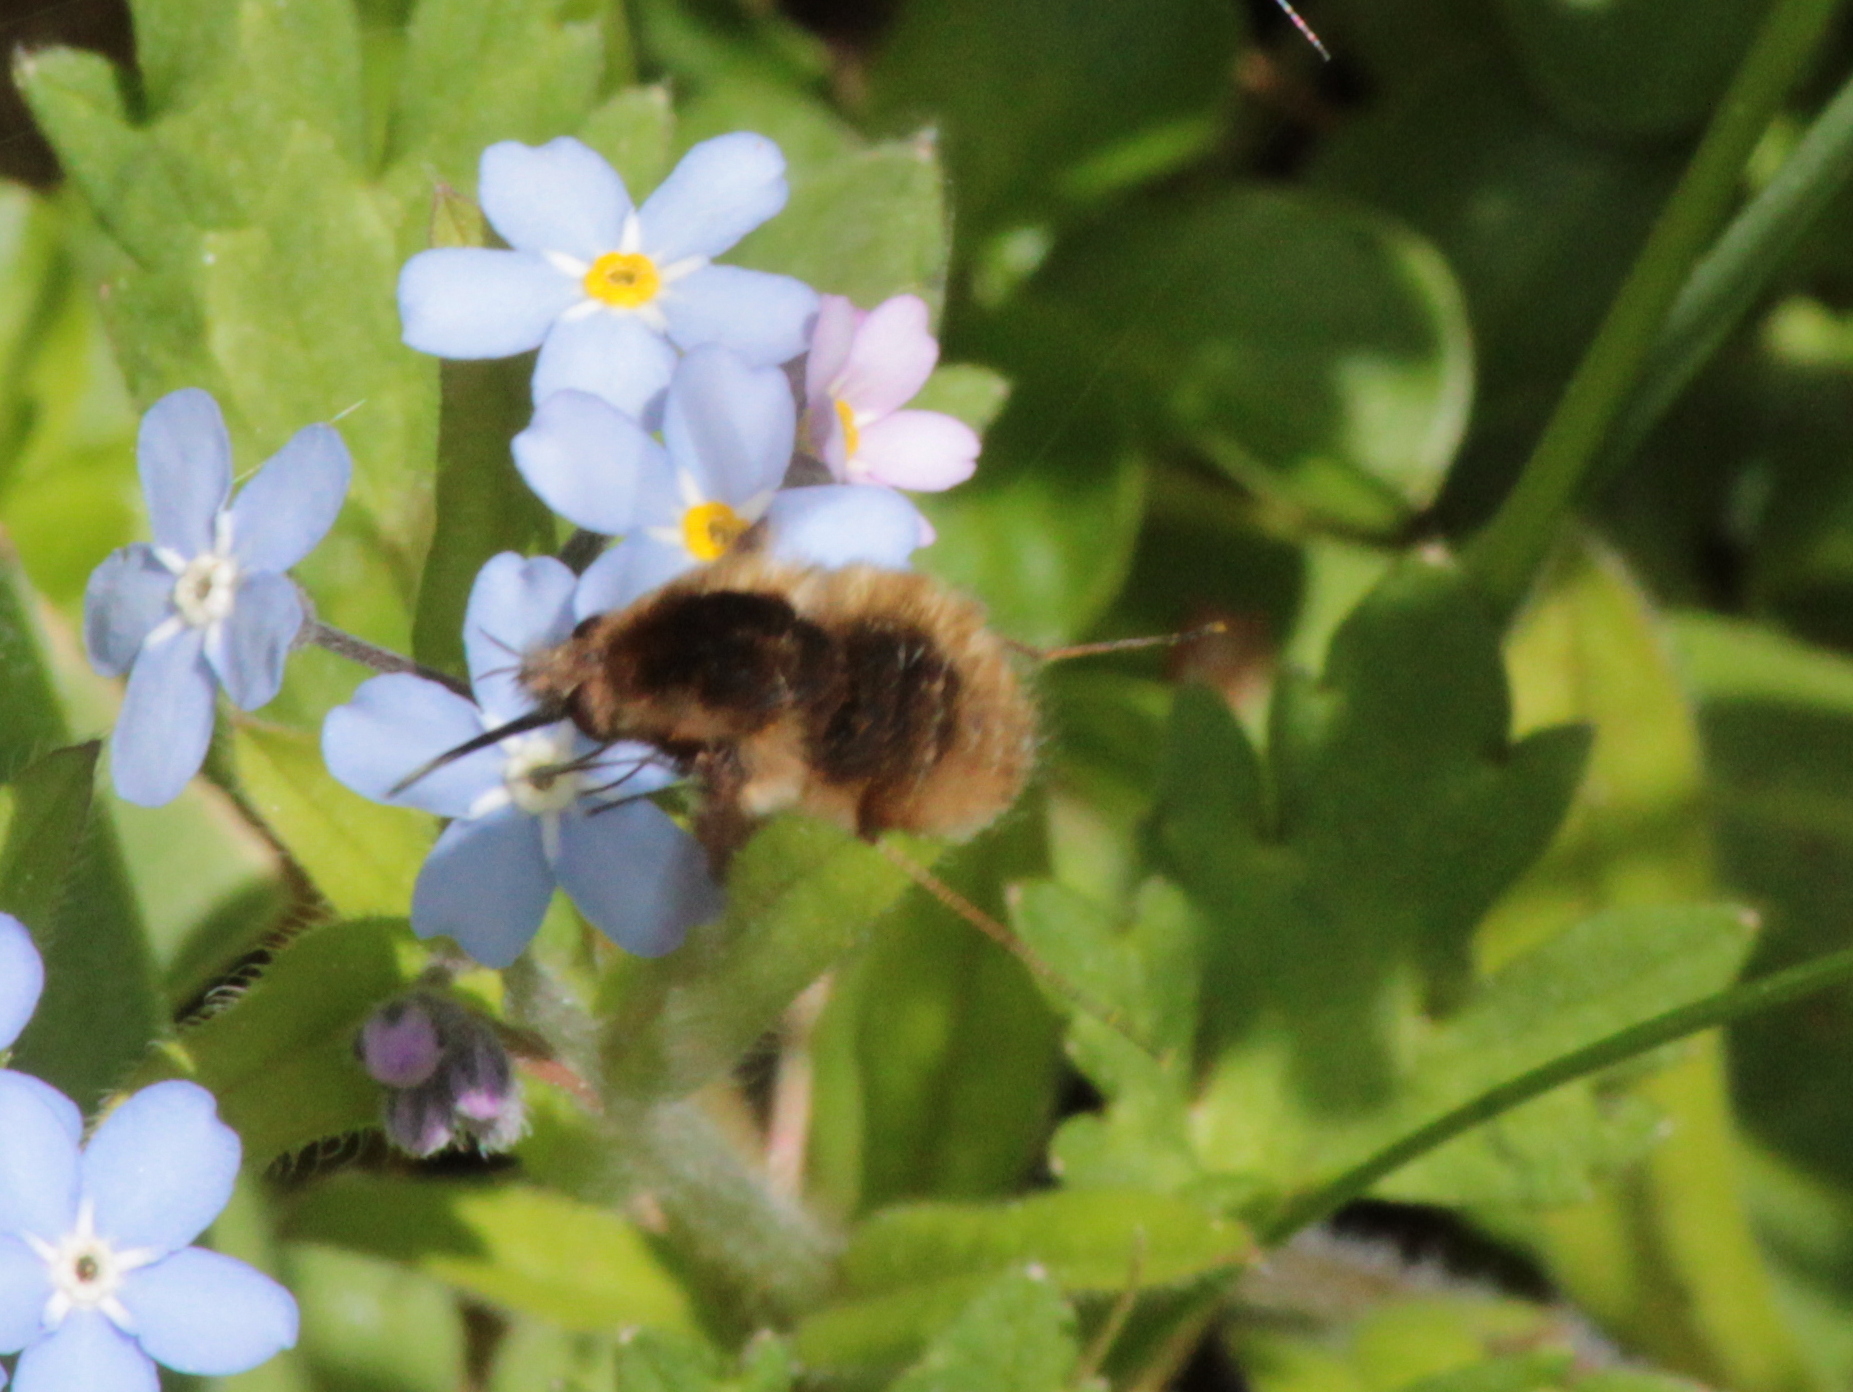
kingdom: Animalia
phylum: Arthropoda
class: Insecta
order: Diptera
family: Bombyliidae
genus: Bombylius
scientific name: Bombylius major
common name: Bee fly
